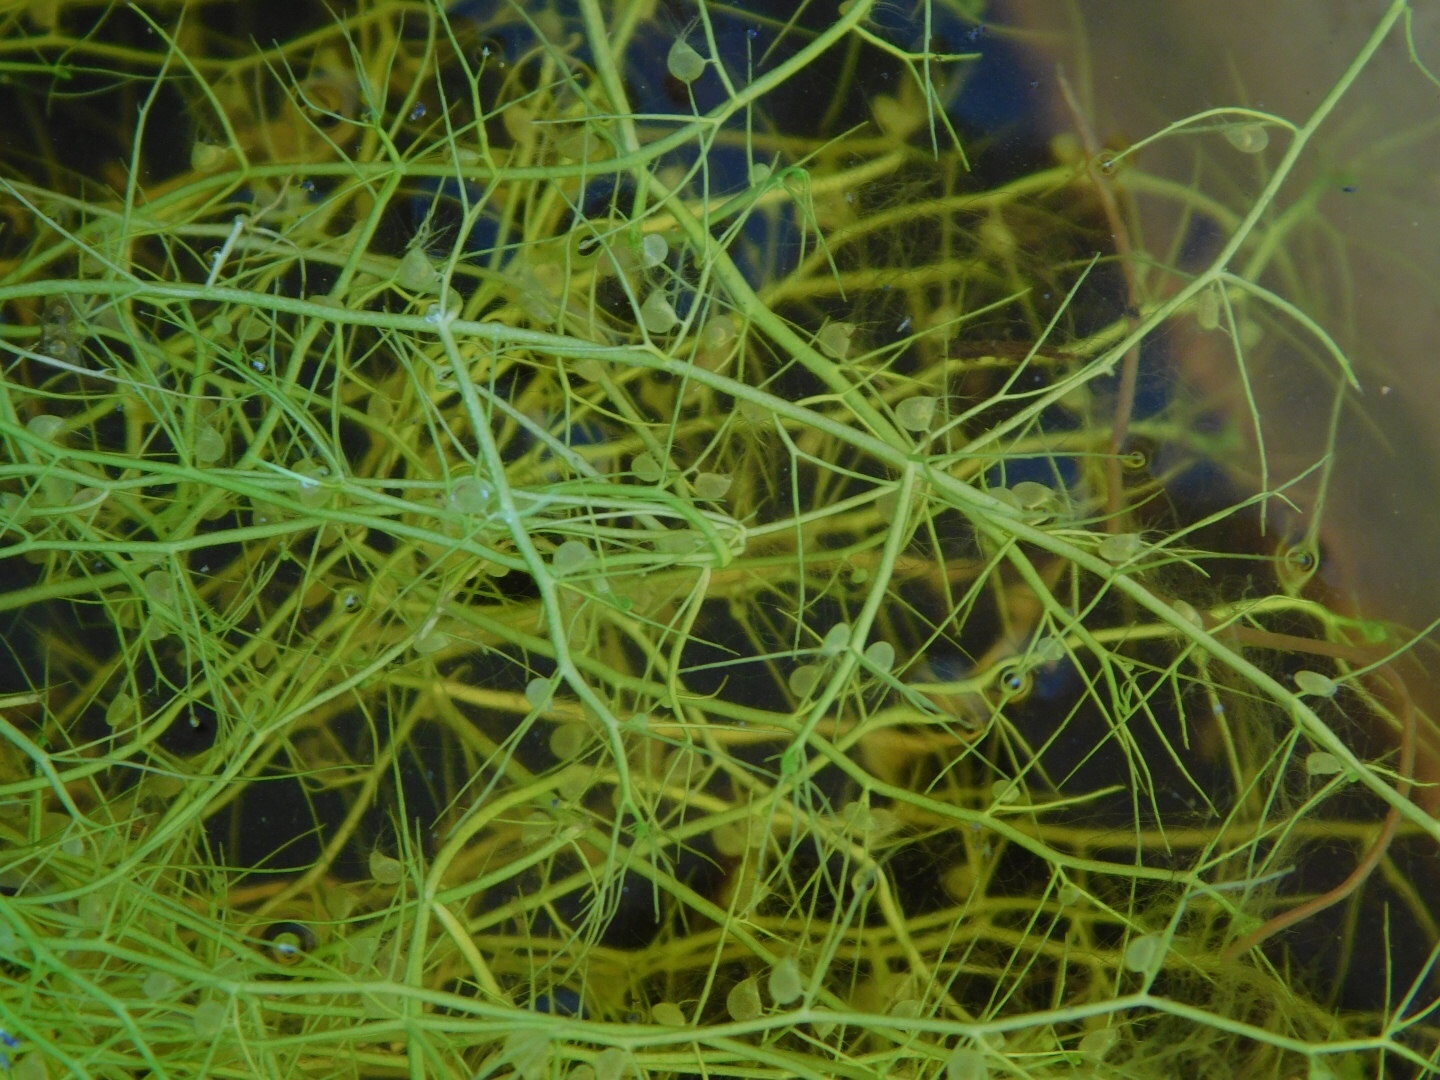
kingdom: Plantae
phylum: Tracheophyta
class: Magnoliopsida
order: Lamiales
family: Lentibulariaceae
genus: Utricularia
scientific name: Utricularia gibba
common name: Humped bladderwort
